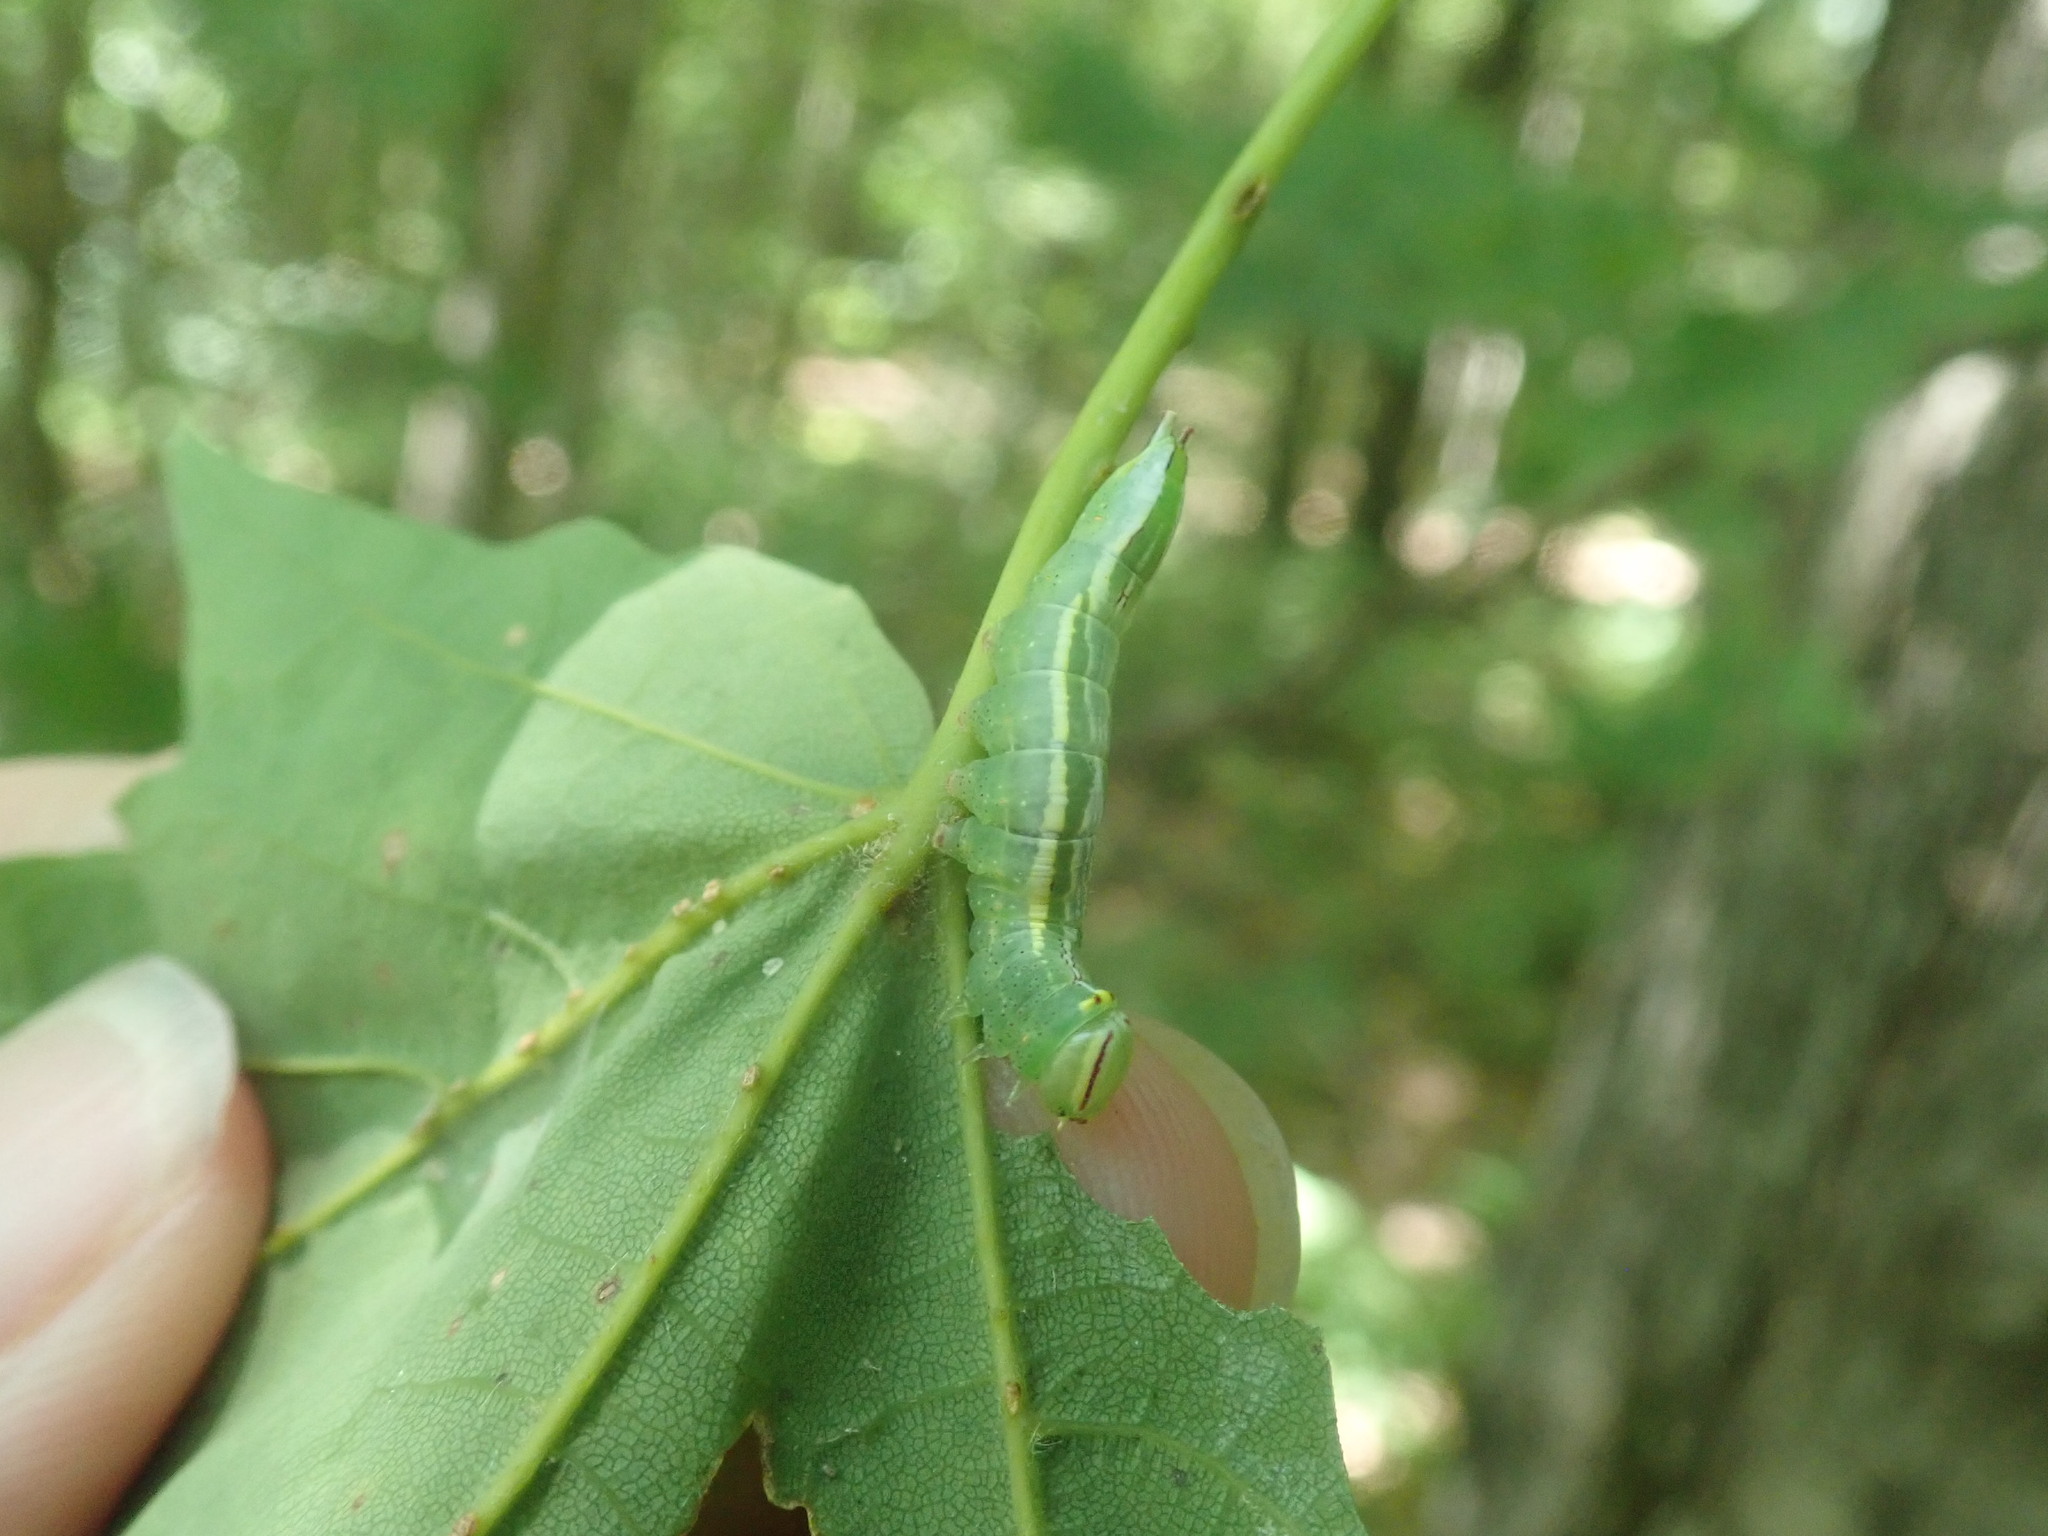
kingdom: Animalia
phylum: Arthropoda
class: Insecta
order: Lepidoptera
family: Notodontidae
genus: Disphragis
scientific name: Disphragis Cecrita guttivitta
